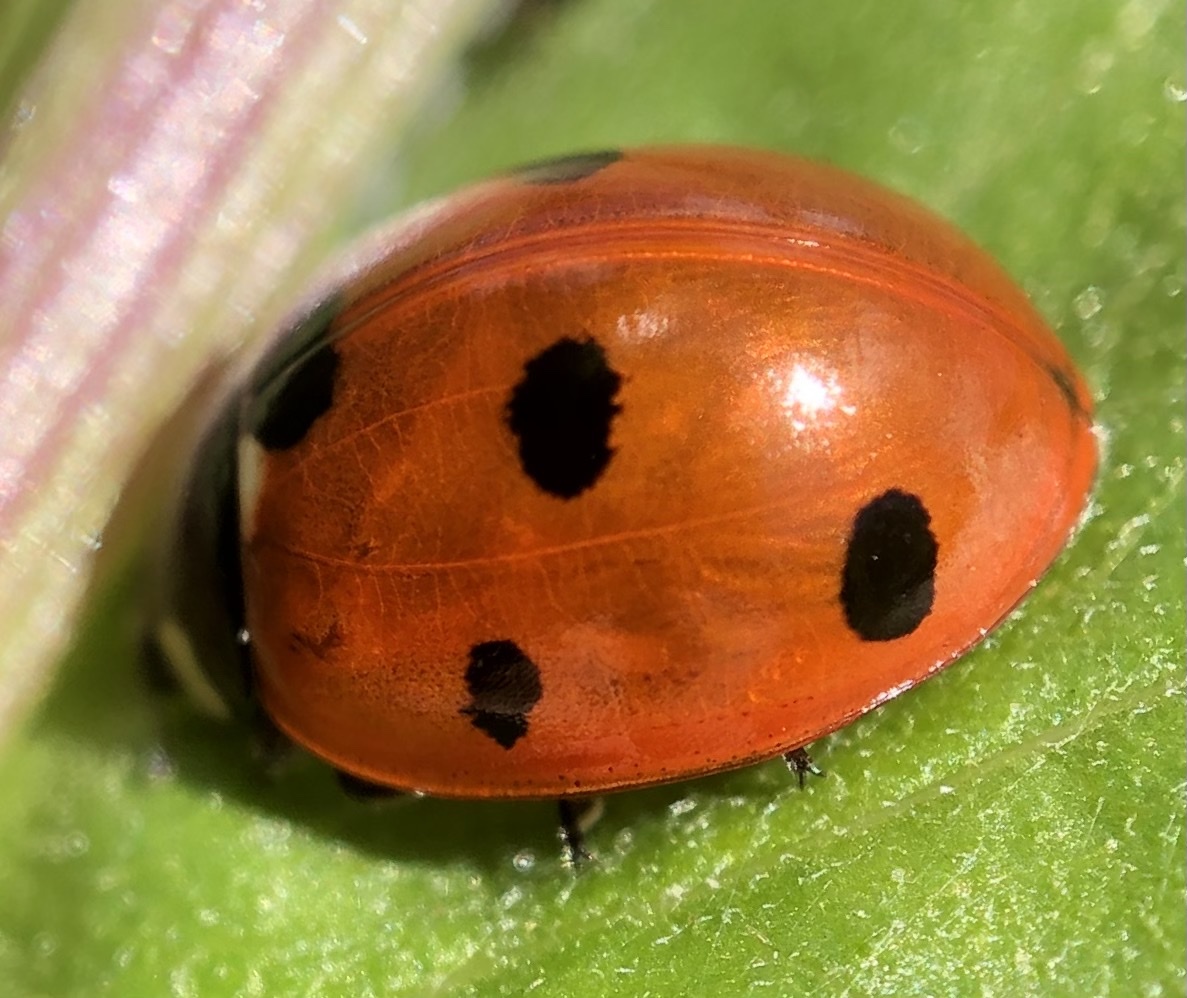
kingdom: Animalia
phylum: Arthropoda
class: Insecta
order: Coleoptera
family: Coccinellidae
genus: Coccinella
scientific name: Coccinella septempunctata
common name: Sevenspotted lady beetle
